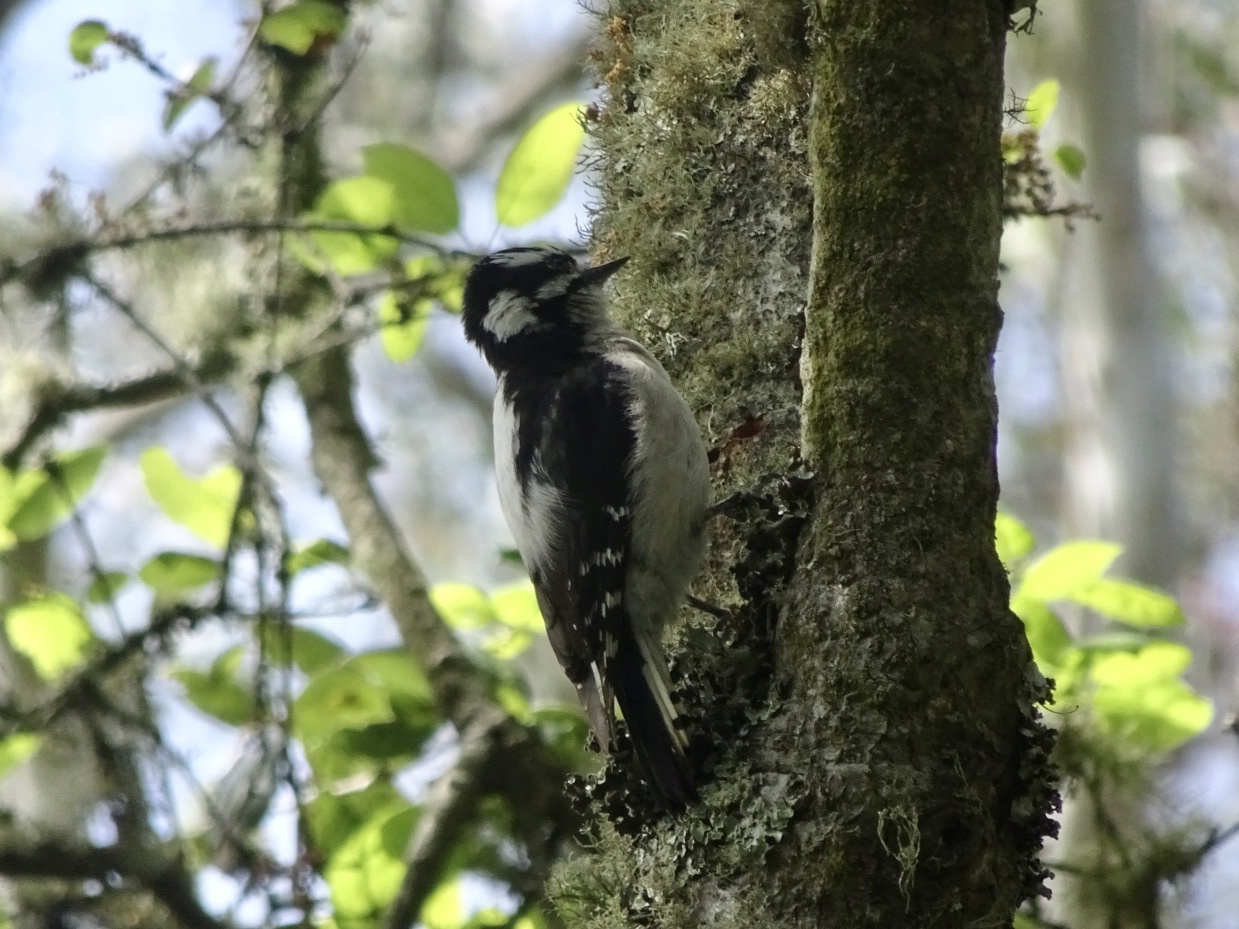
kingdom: Animalia
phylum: Chordata
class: Aves
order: Piciformes
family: Picidae
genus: Dryobates
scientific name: Dryobates pubescens
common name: Downy woodpecker
